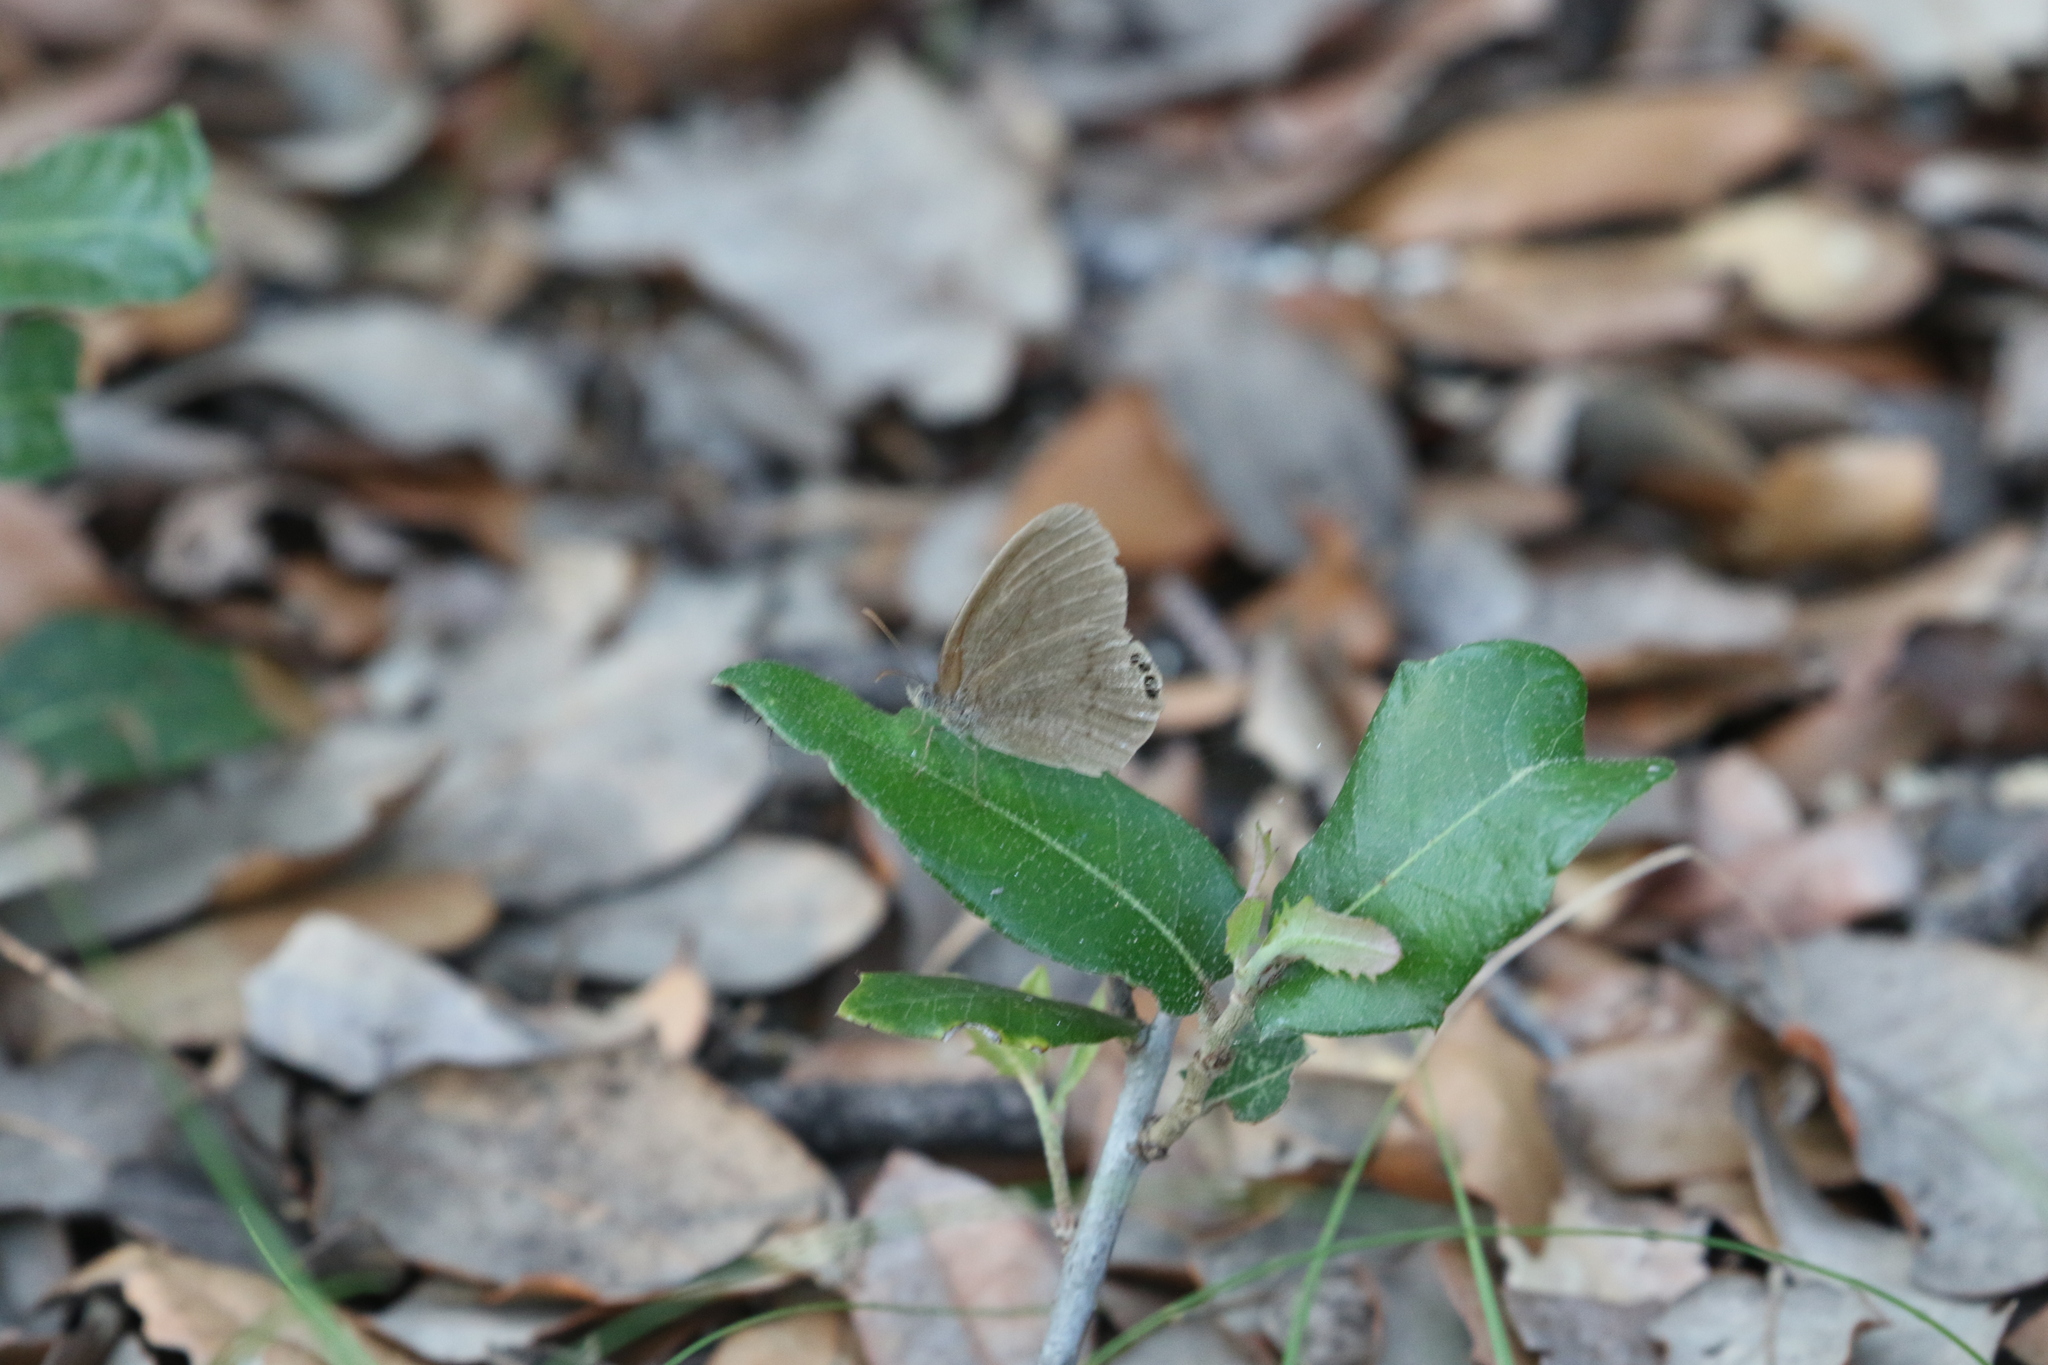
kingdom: Animalia
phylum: Arthropoda
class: Insecta
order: Lepidoptera
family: Nymphalidae
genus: Euptychia
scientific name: Euptychia cornelius
